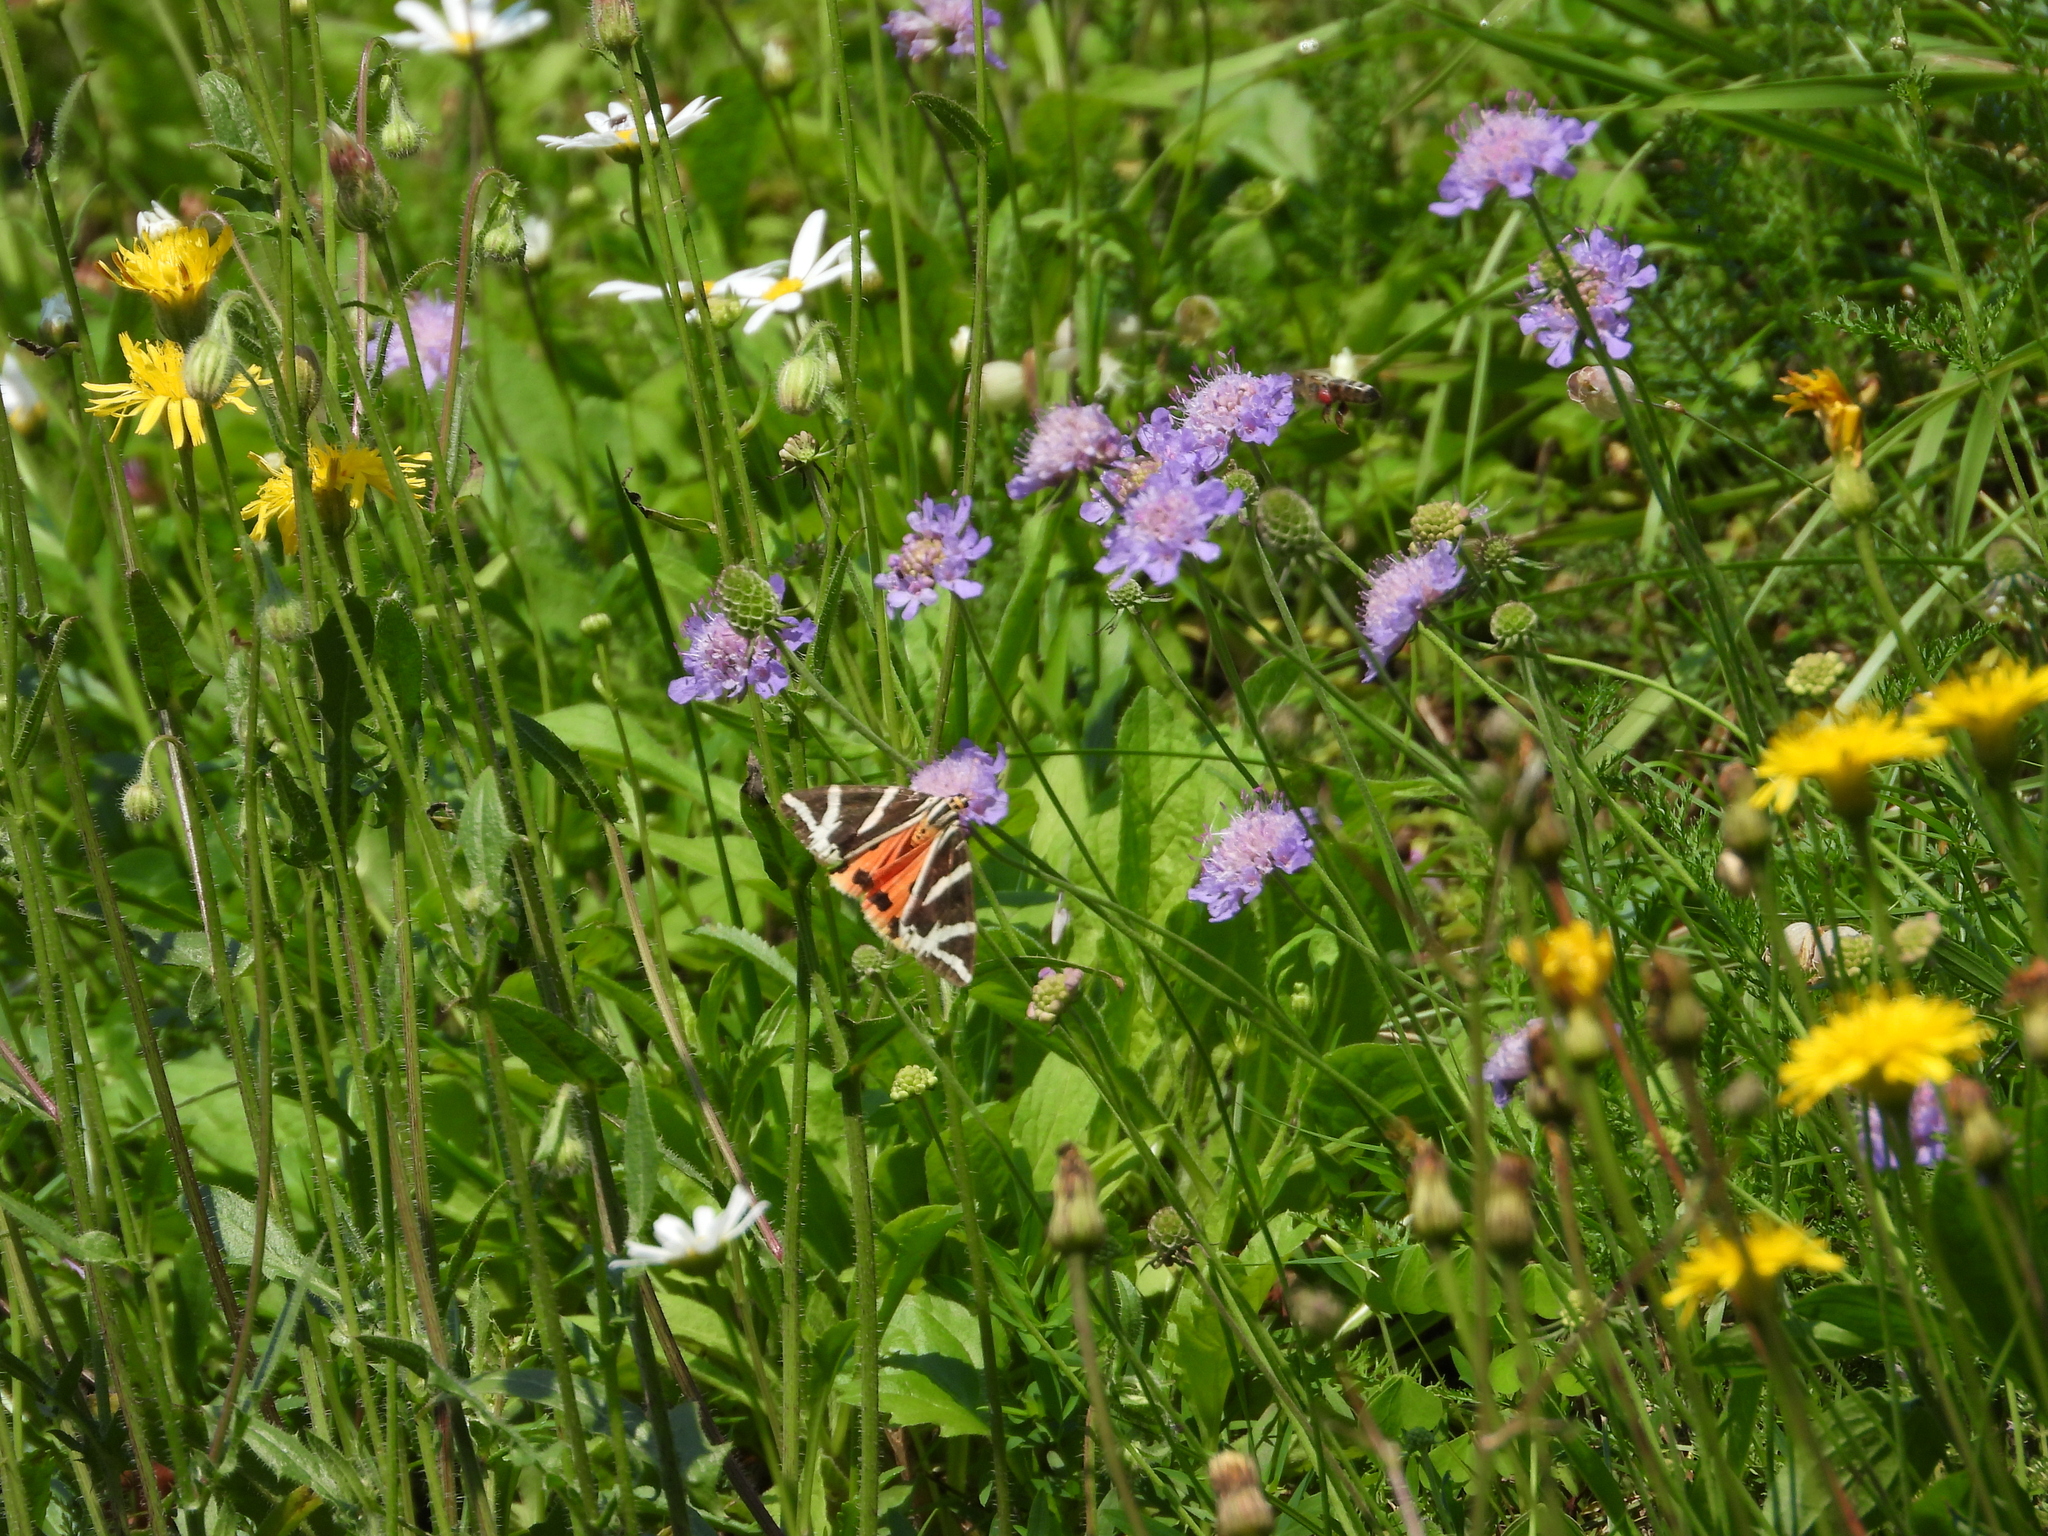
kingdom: Animalia
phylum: Arthropoda
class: Insecta
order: Lepidoptera
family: Erebidae
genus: Euplagia
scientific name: Euplagia quadripunctaria
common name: Jersey tiger
